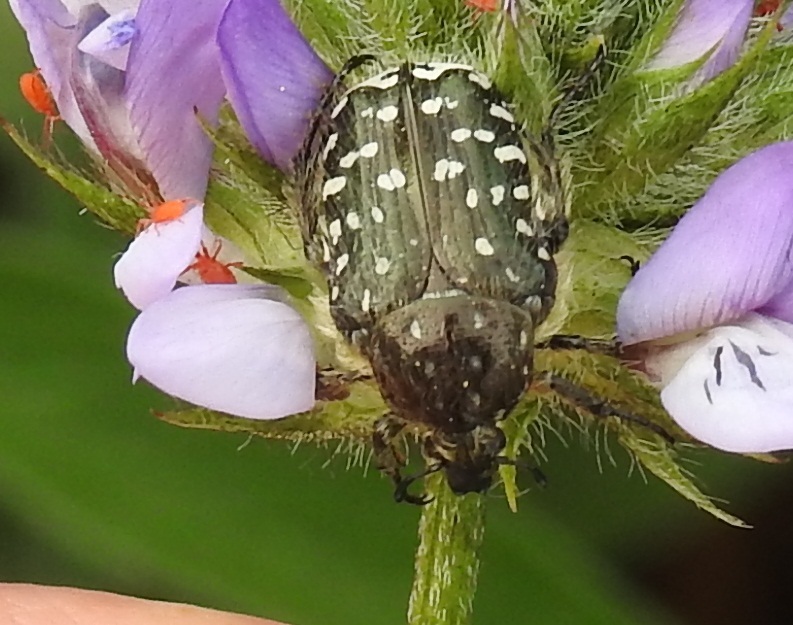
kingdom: Animalia
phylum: Arthropoda
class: Insecta
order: Coleoptera
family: Scarabaeidae
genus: Oxythyrea
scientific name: Oxythyrea funesta
